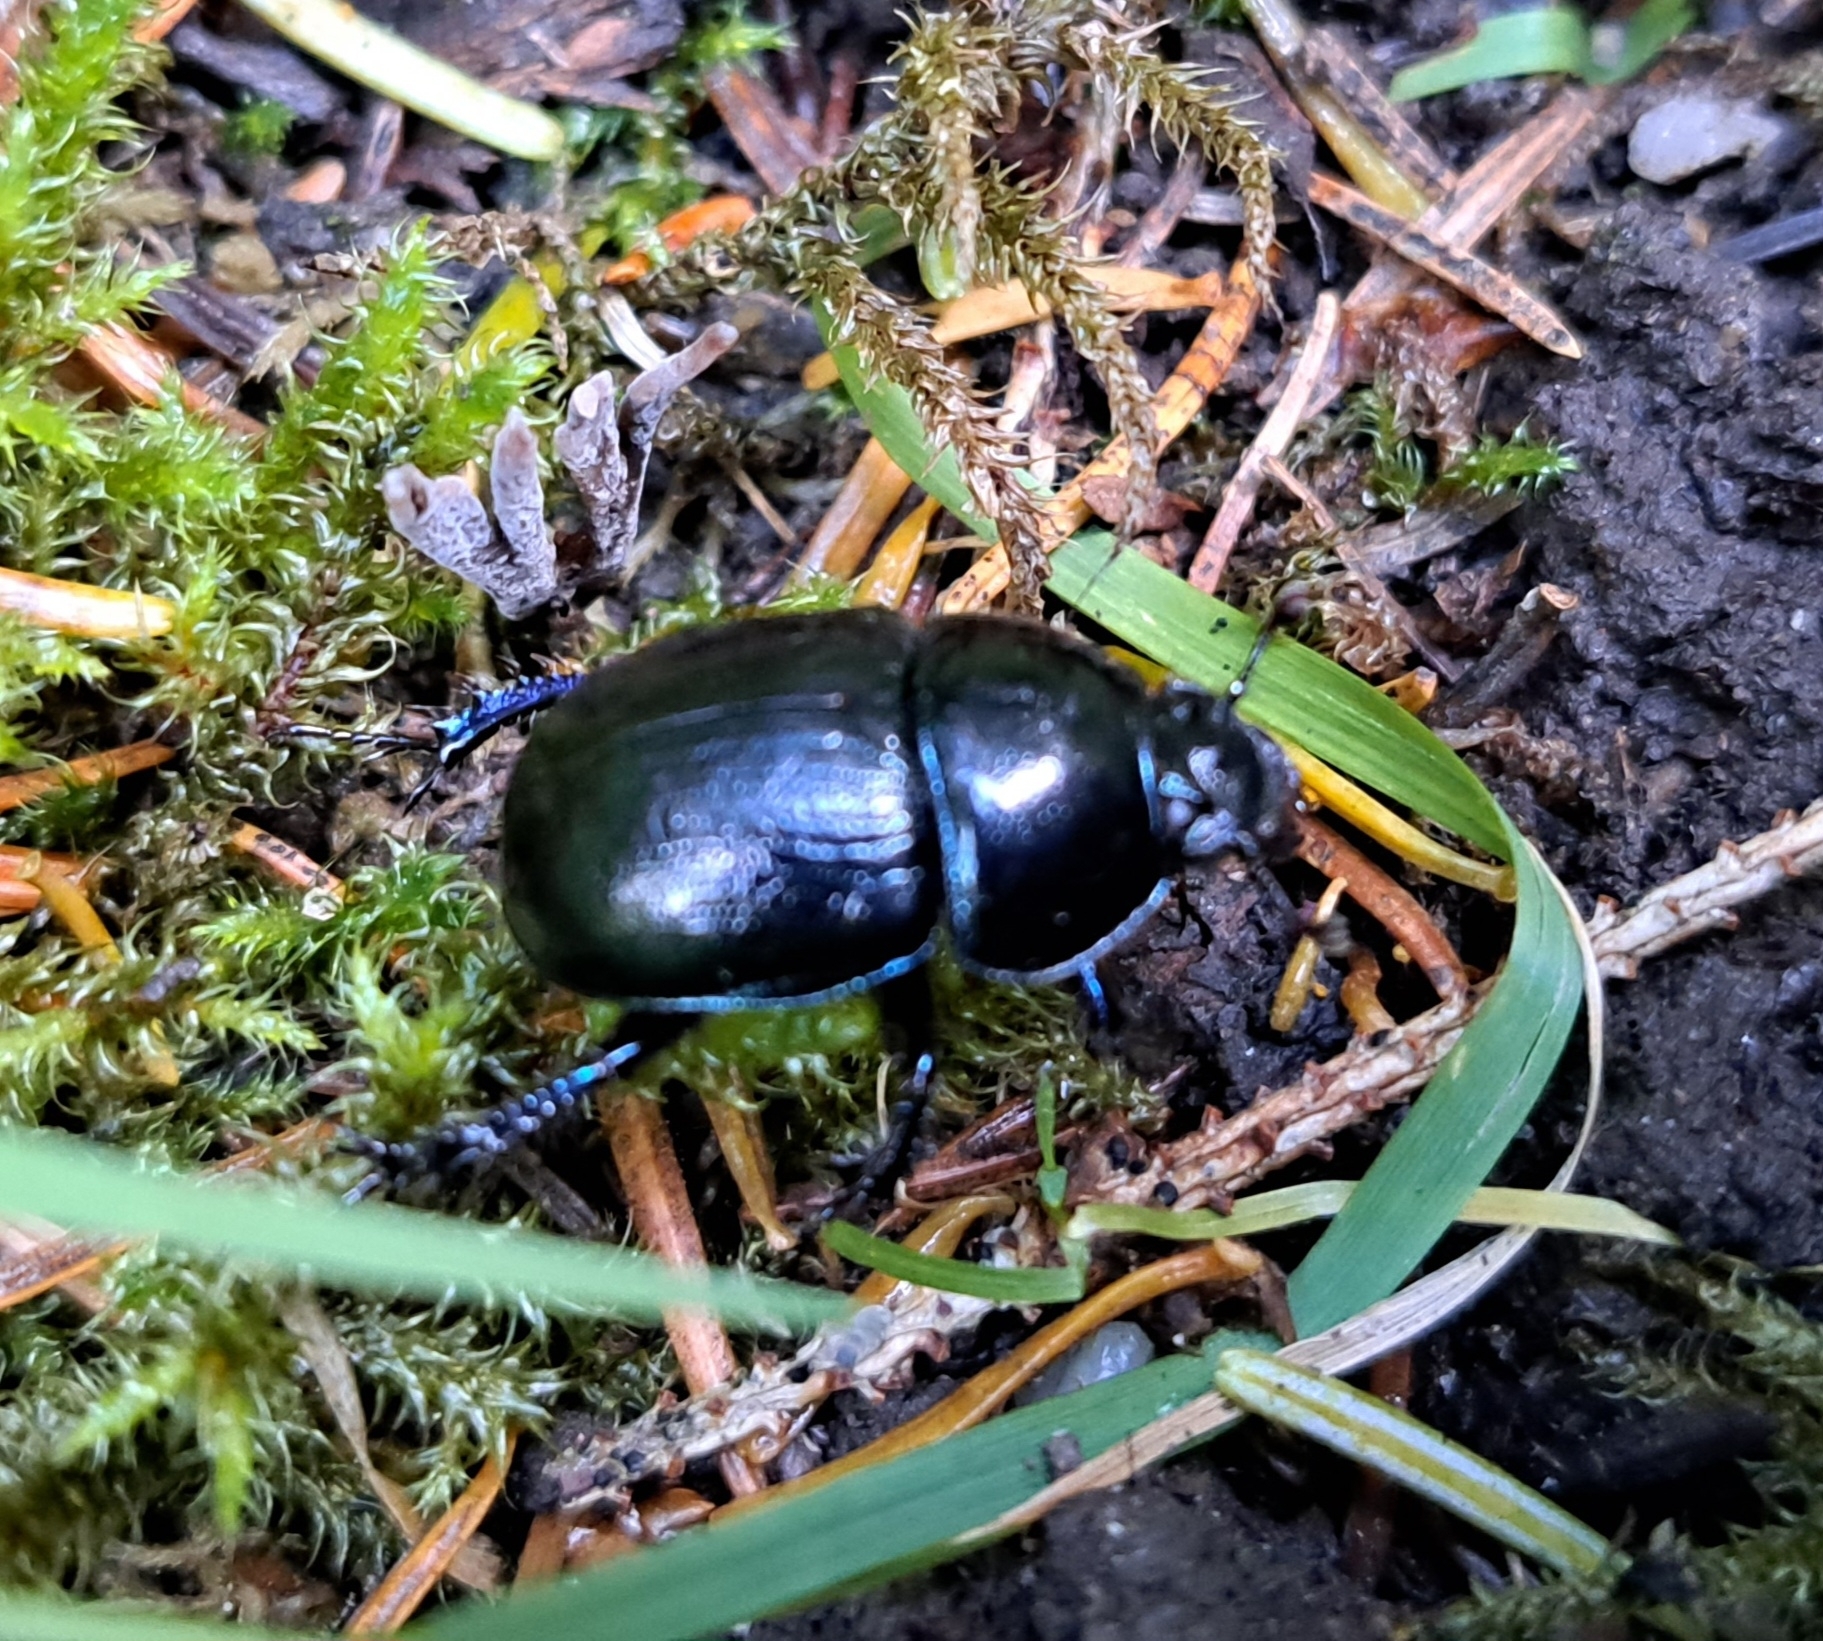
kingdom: Animalia
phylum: Arthropoda
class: Insecta
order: Coleoptera
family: Geotrupidae
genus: Anoplotrupes
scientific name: Anoplotrupes stercorosus
